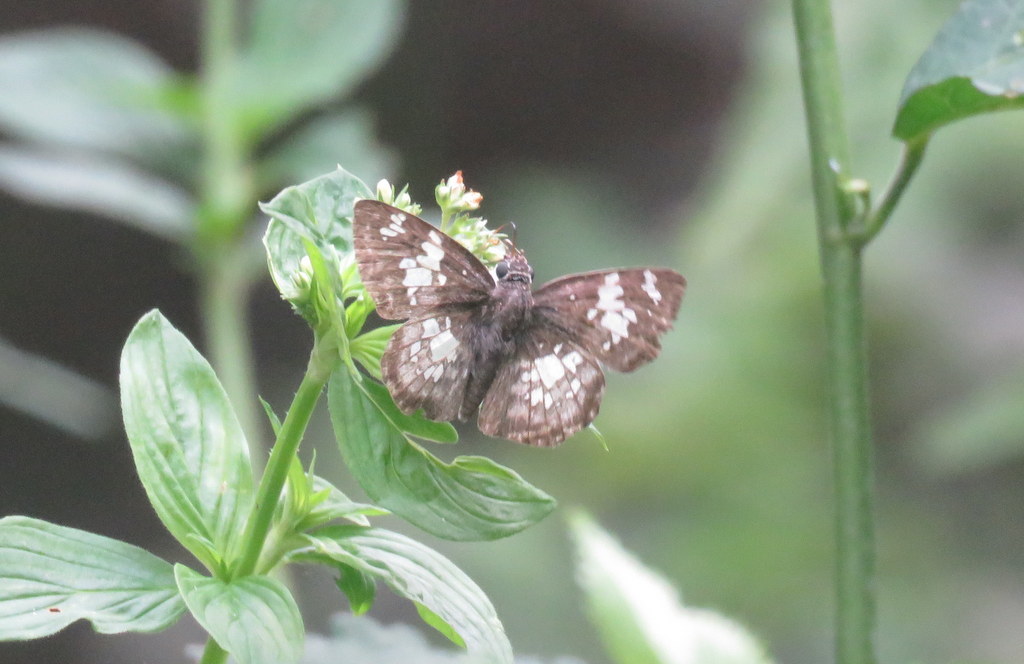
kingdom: Animalia
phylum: Arthropoda
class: Insecta
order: Lepidoptera
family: Hesperiidae
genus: Xenophanes
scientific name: Xenophanes tryxus
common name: Glassy-winged skipper
